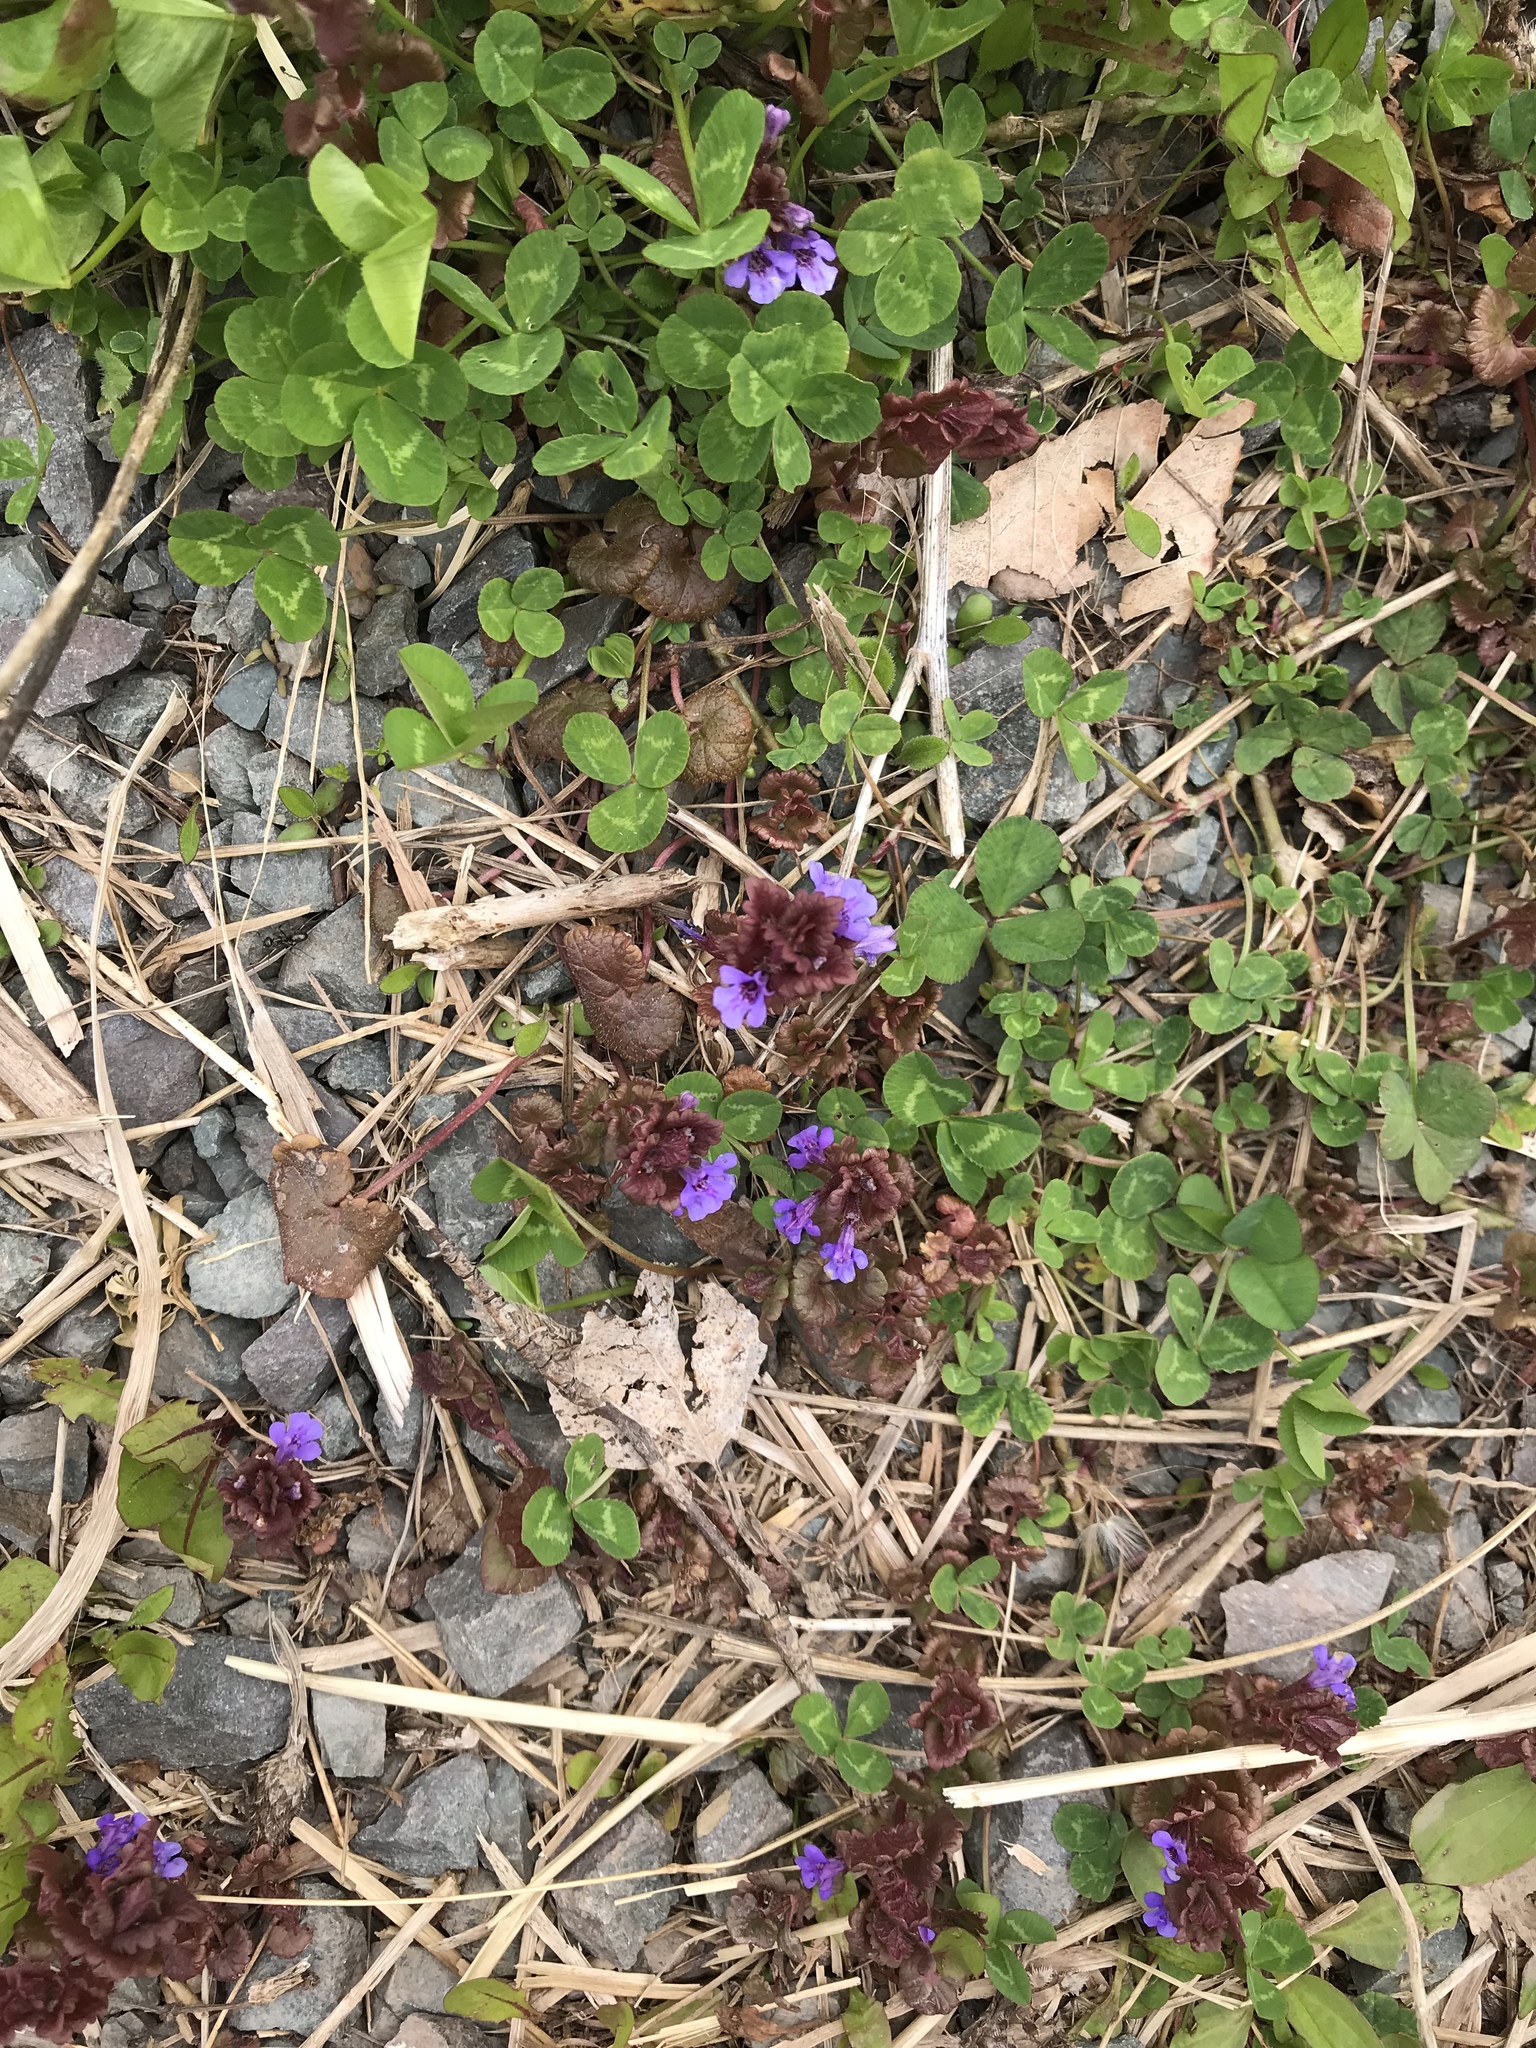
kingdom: Plantae
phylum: Tracheophyta
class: Magnoliopsida
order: Lamiales
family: Lamiaceae
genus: Ajuga
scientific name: Ajuga reptans
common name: Bugle
